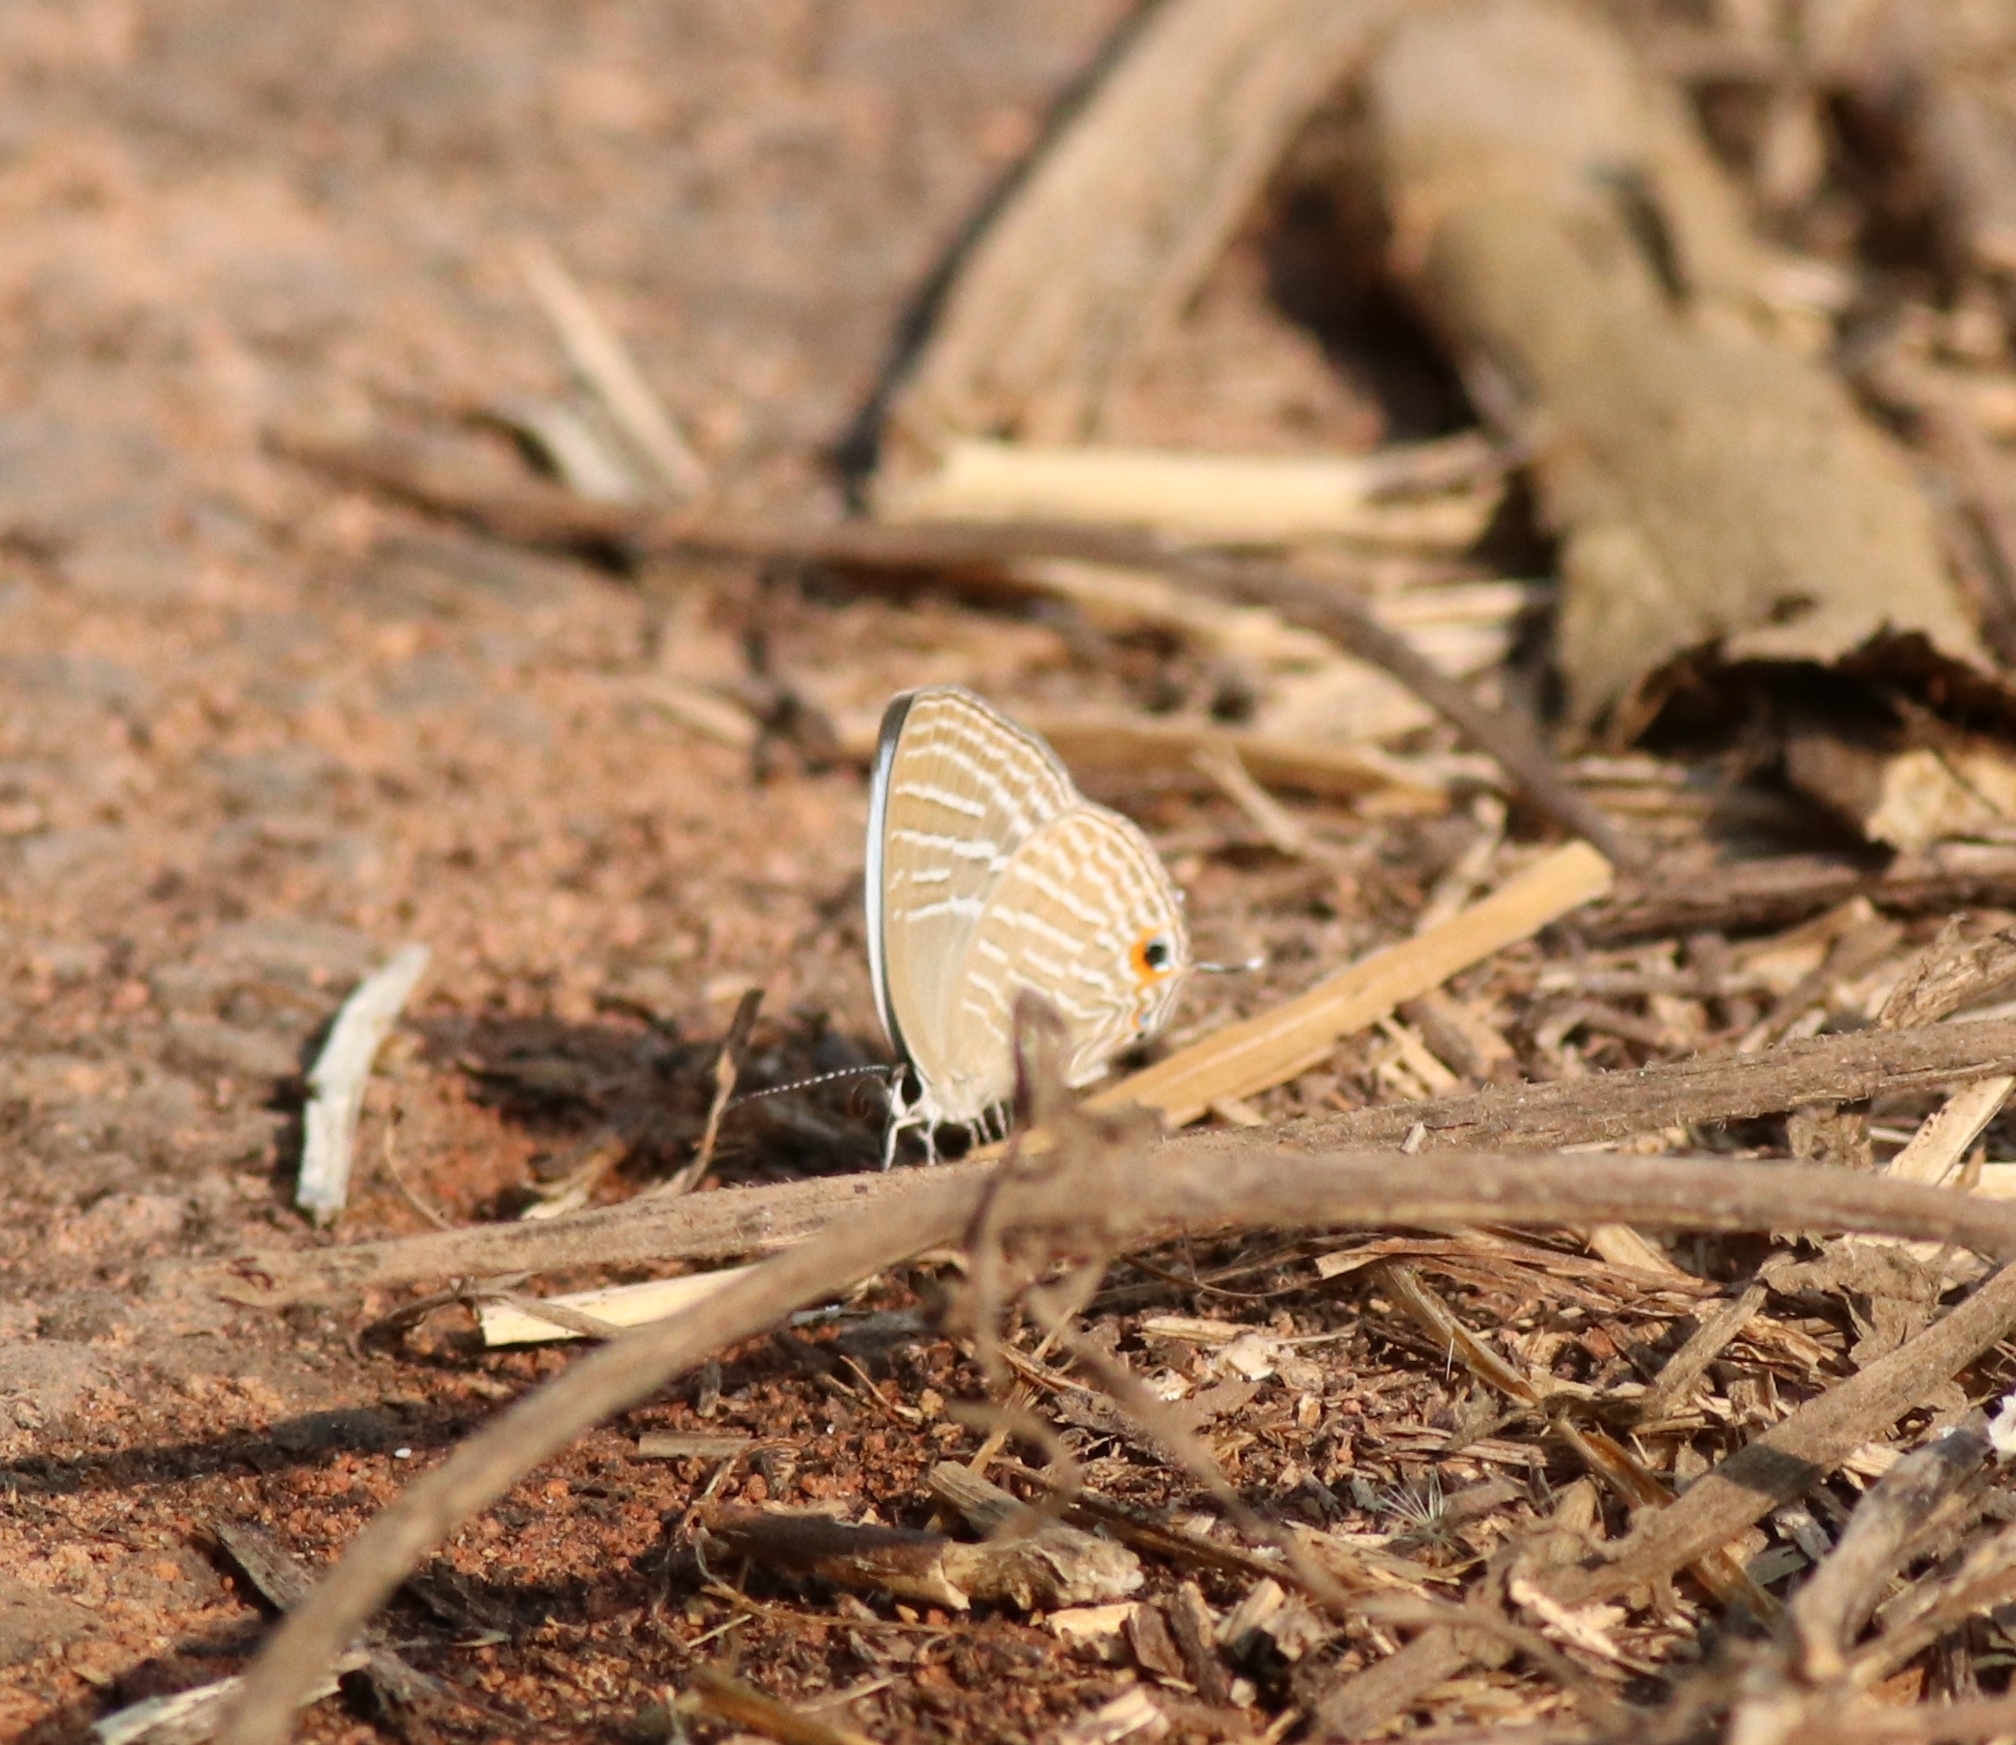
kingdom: Animalia
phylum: Arthropoda
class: Insecta
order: Lepidoptera
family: Lycaenidae
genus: Jamides
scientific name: Jamides celeno
